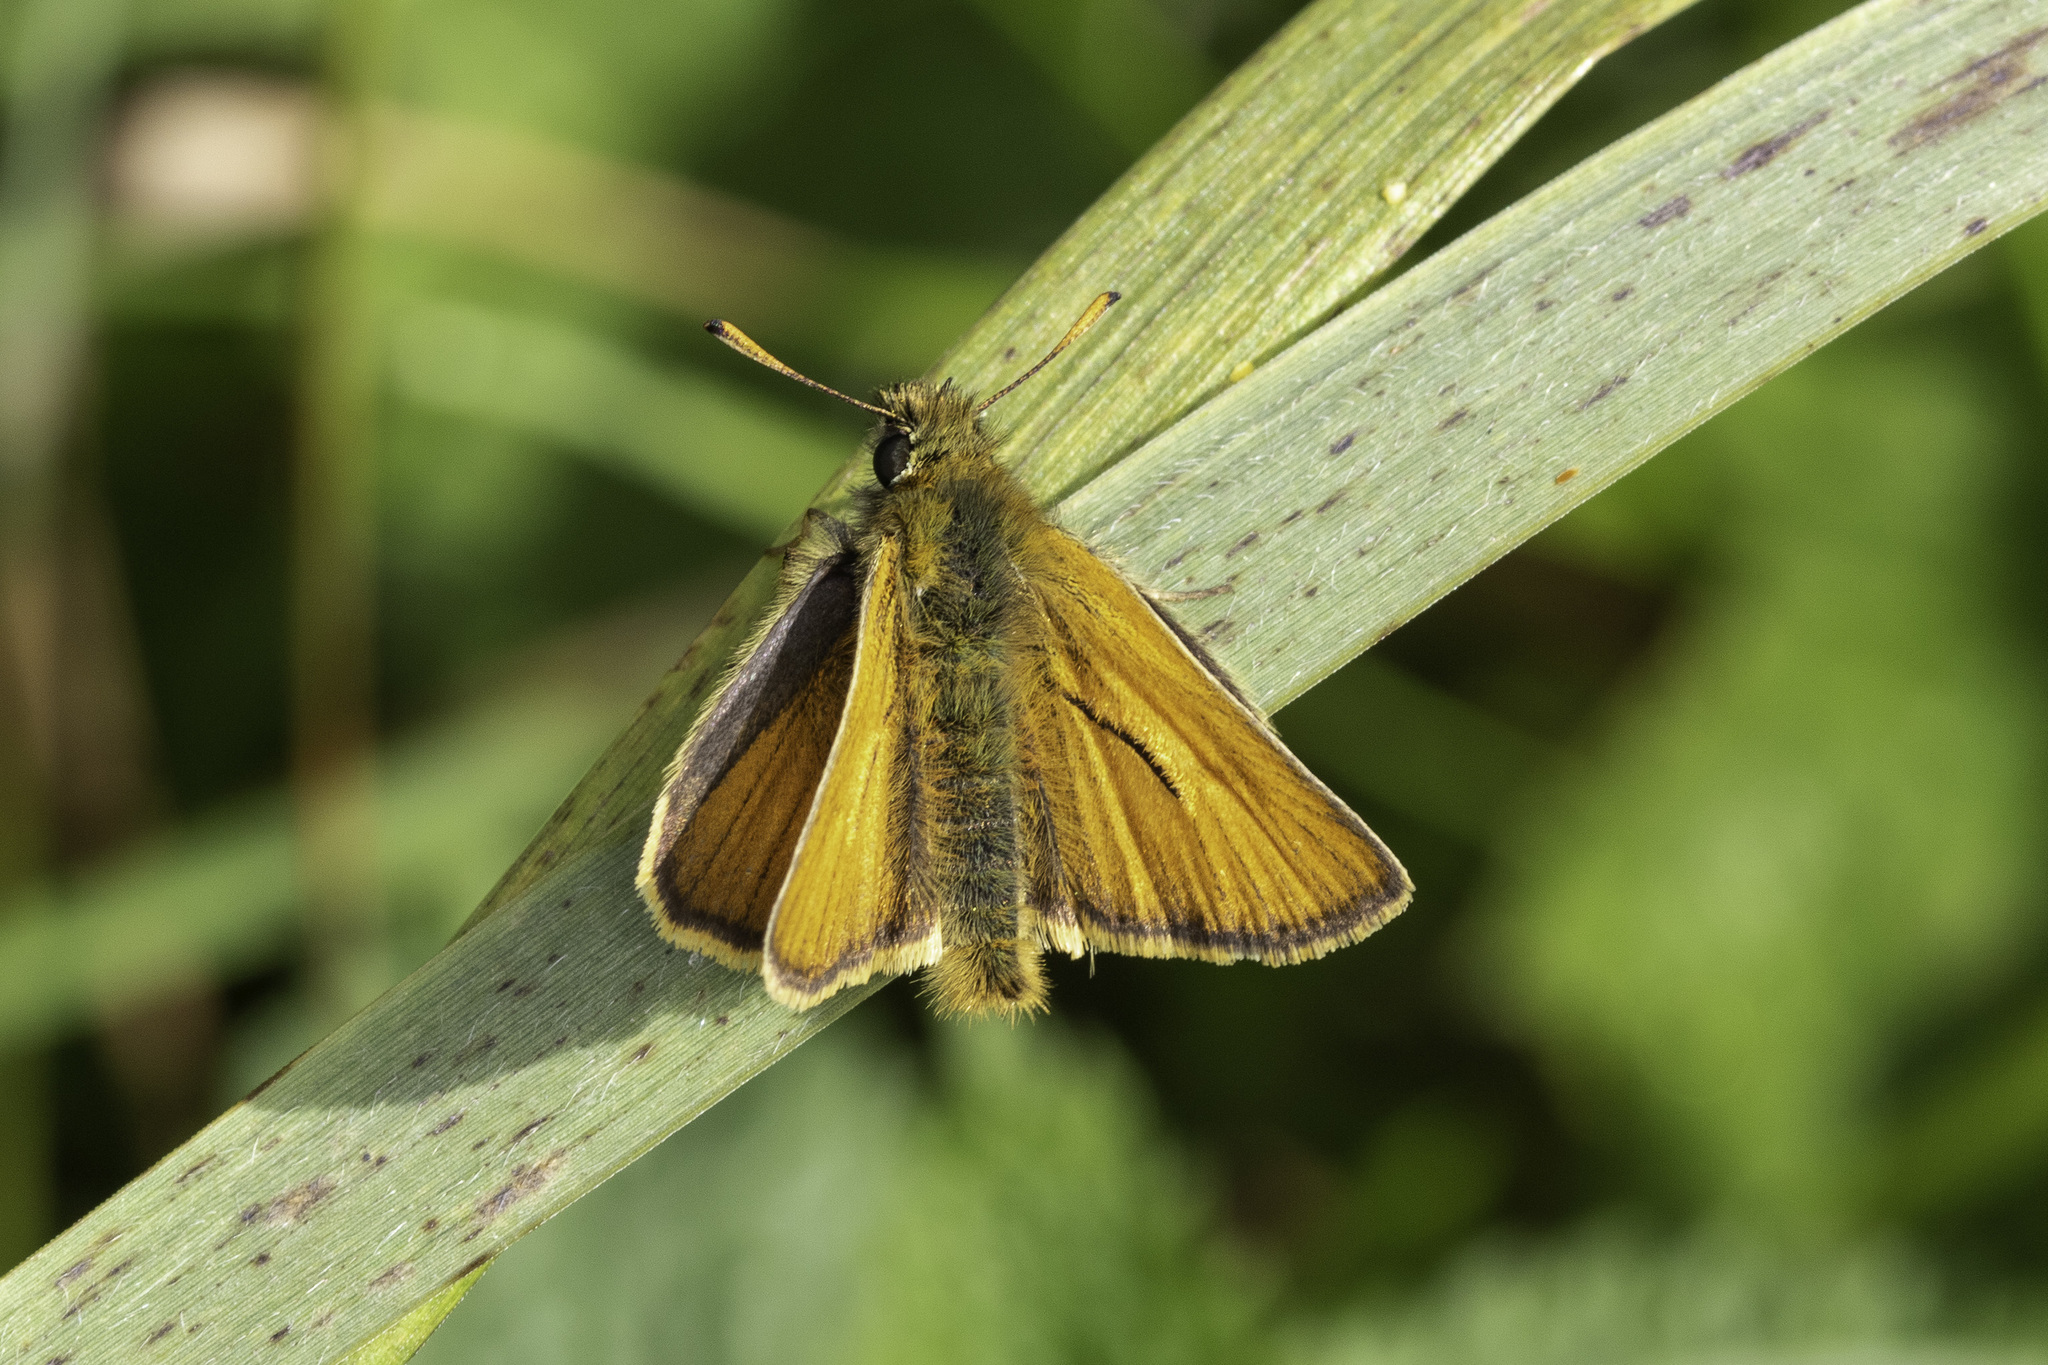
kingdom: Animalia
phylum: Arthropoda
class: Insecta
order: Lepidoptera
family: Hesperiidae
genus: Thymelicus
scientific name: Thymelicus sylvestris
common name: Small skipper
